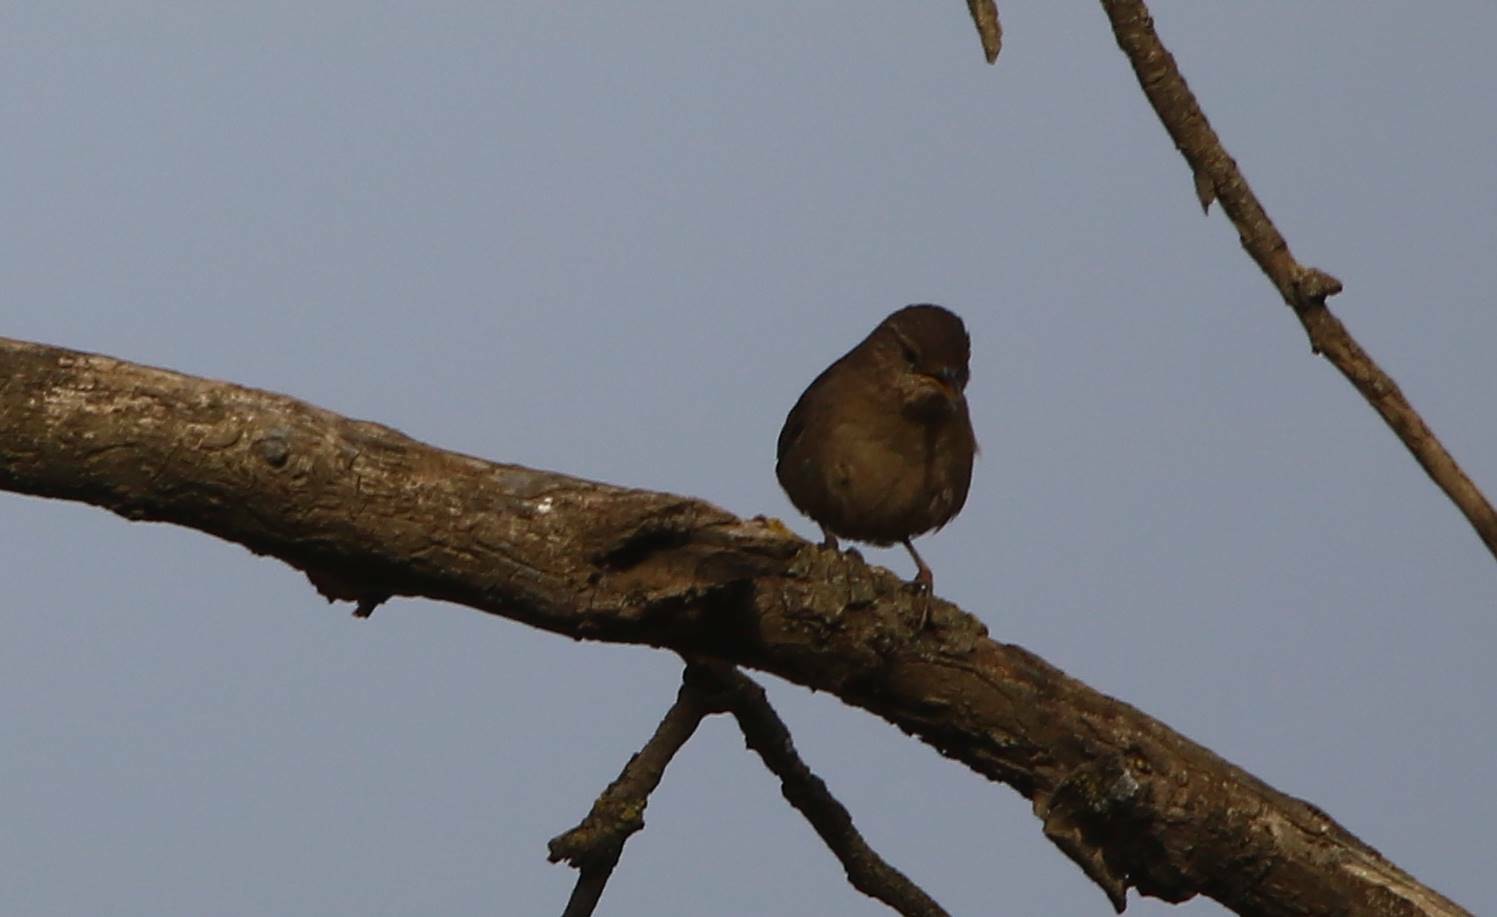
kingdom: Animalia
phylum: Chordata
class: Aves
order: Passeriformes
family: Troglodytidae
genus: Troglodytes
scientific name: Troglodytes troglodytes
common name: Eurasian wren
